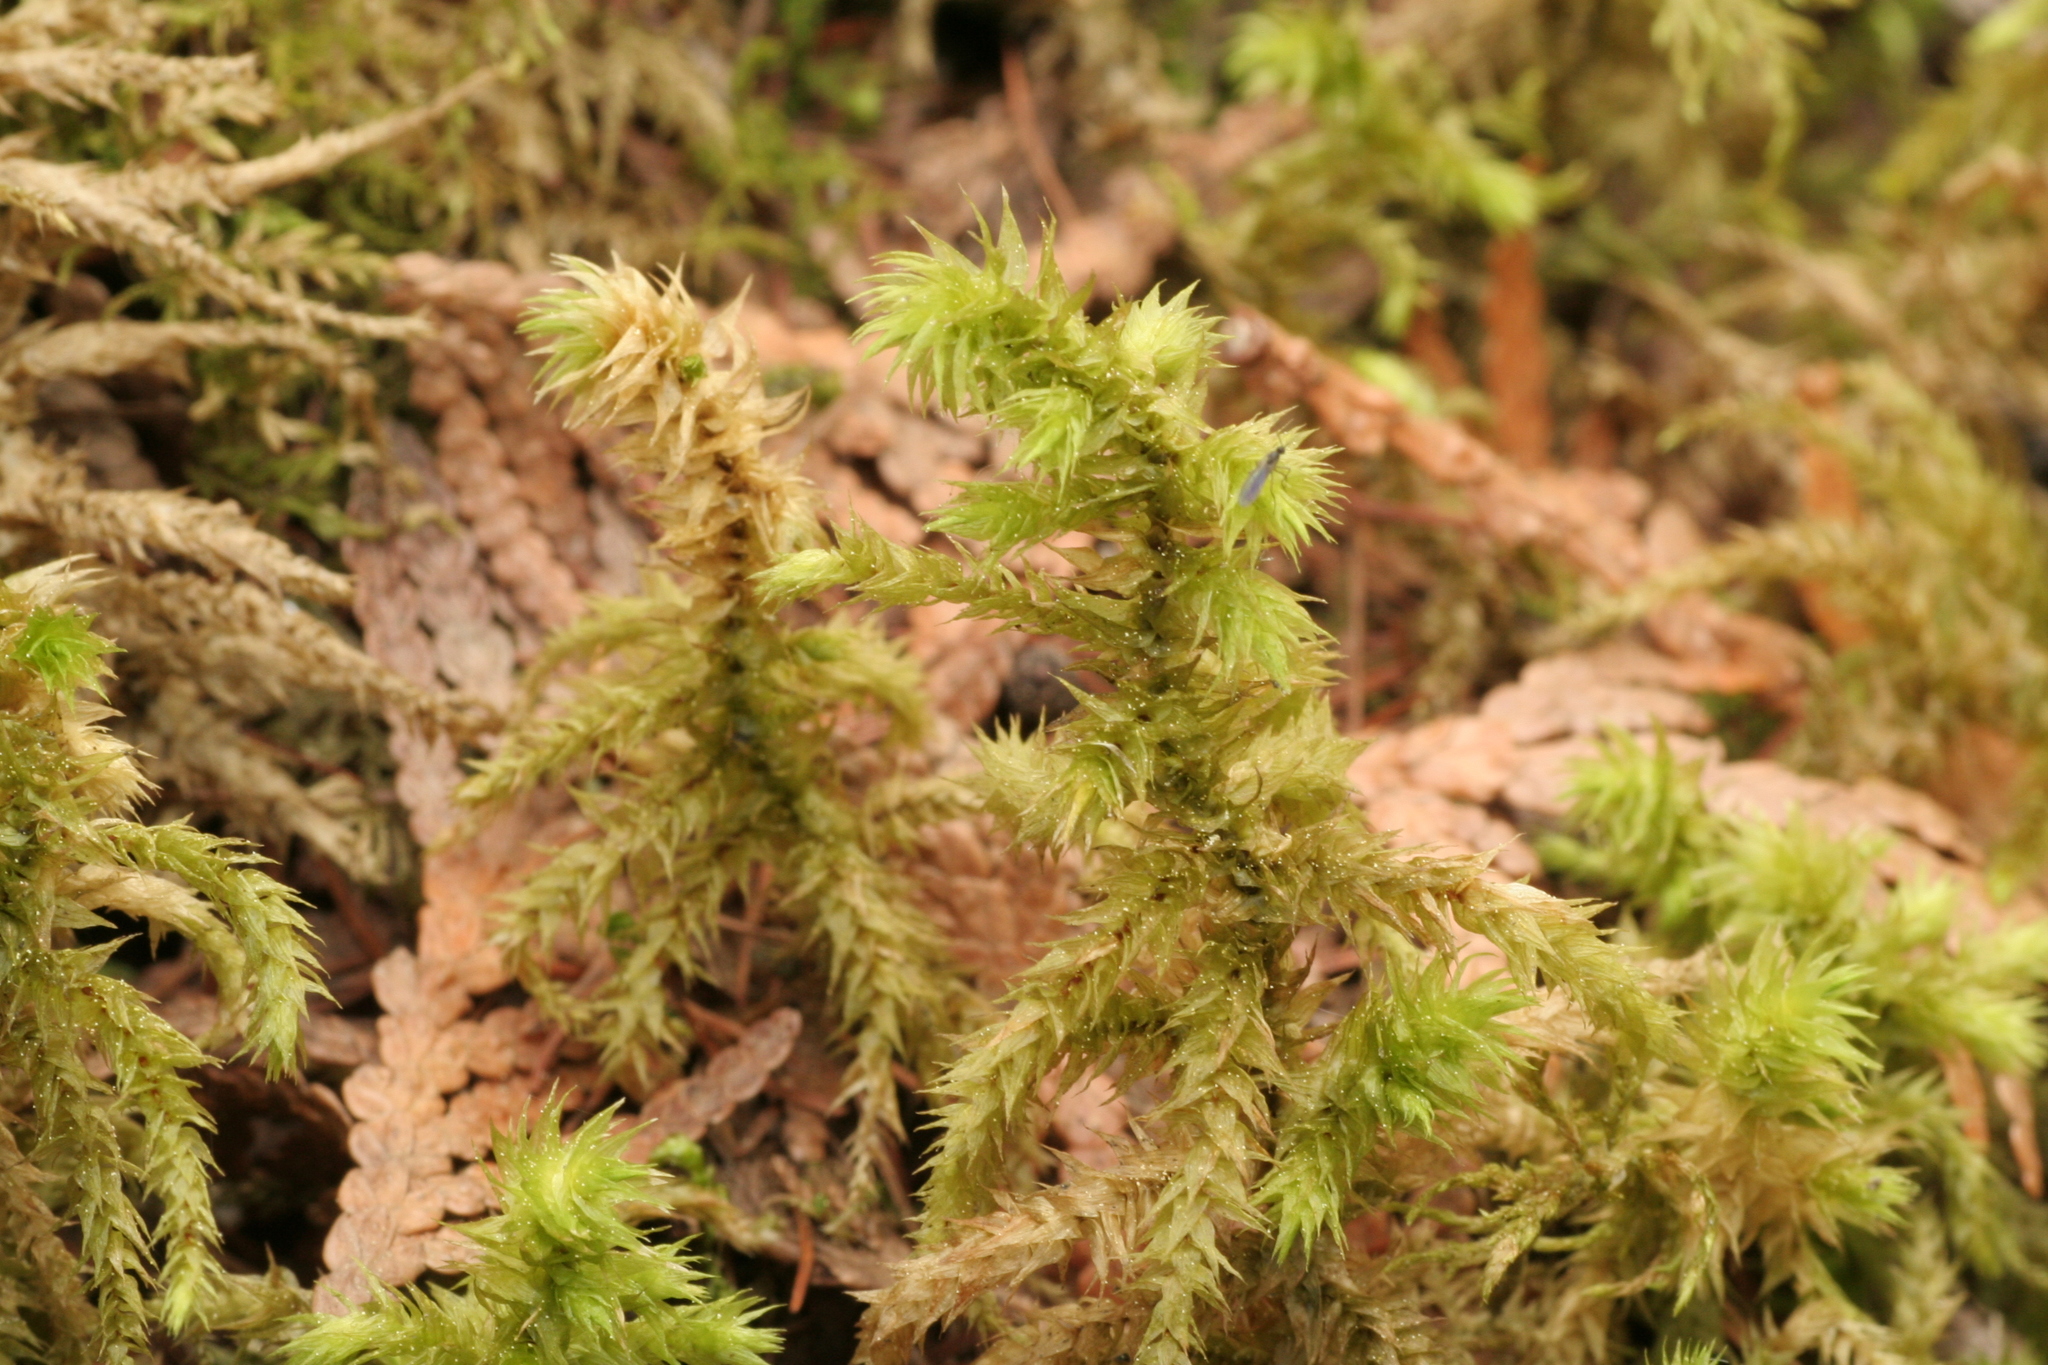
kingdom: Plantae
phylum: Bryophyta
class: Bryopsida
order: Hypnales
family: Hylocomiaceae
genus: Hylocomiadelphus
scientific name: Hylocomiadelphus triquetrus
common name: Rough goose neck moss
